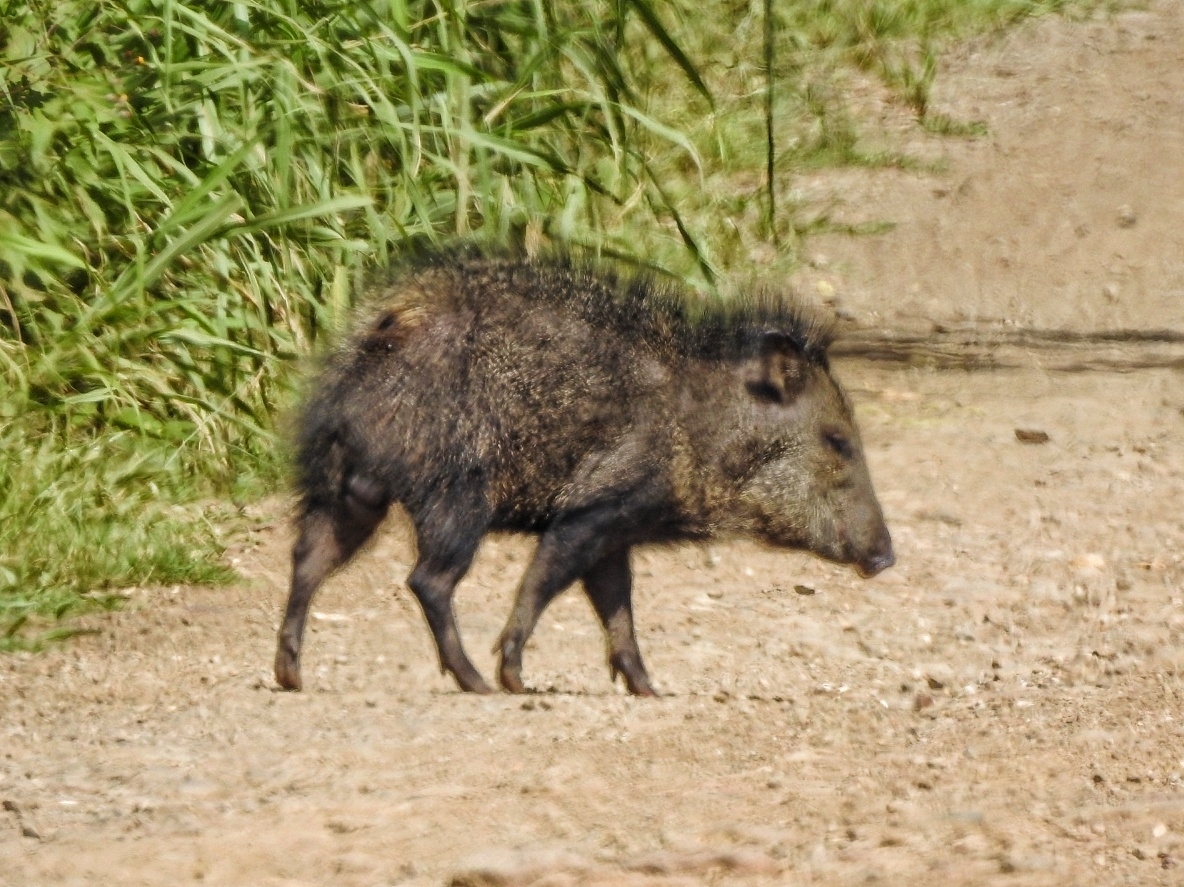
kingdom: Animalia
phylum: Chordata
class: Mammalia
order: Artiodactyla
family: Tayassuidae
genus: Pecari
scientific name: Pecari tajacu
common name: Collared peccary
